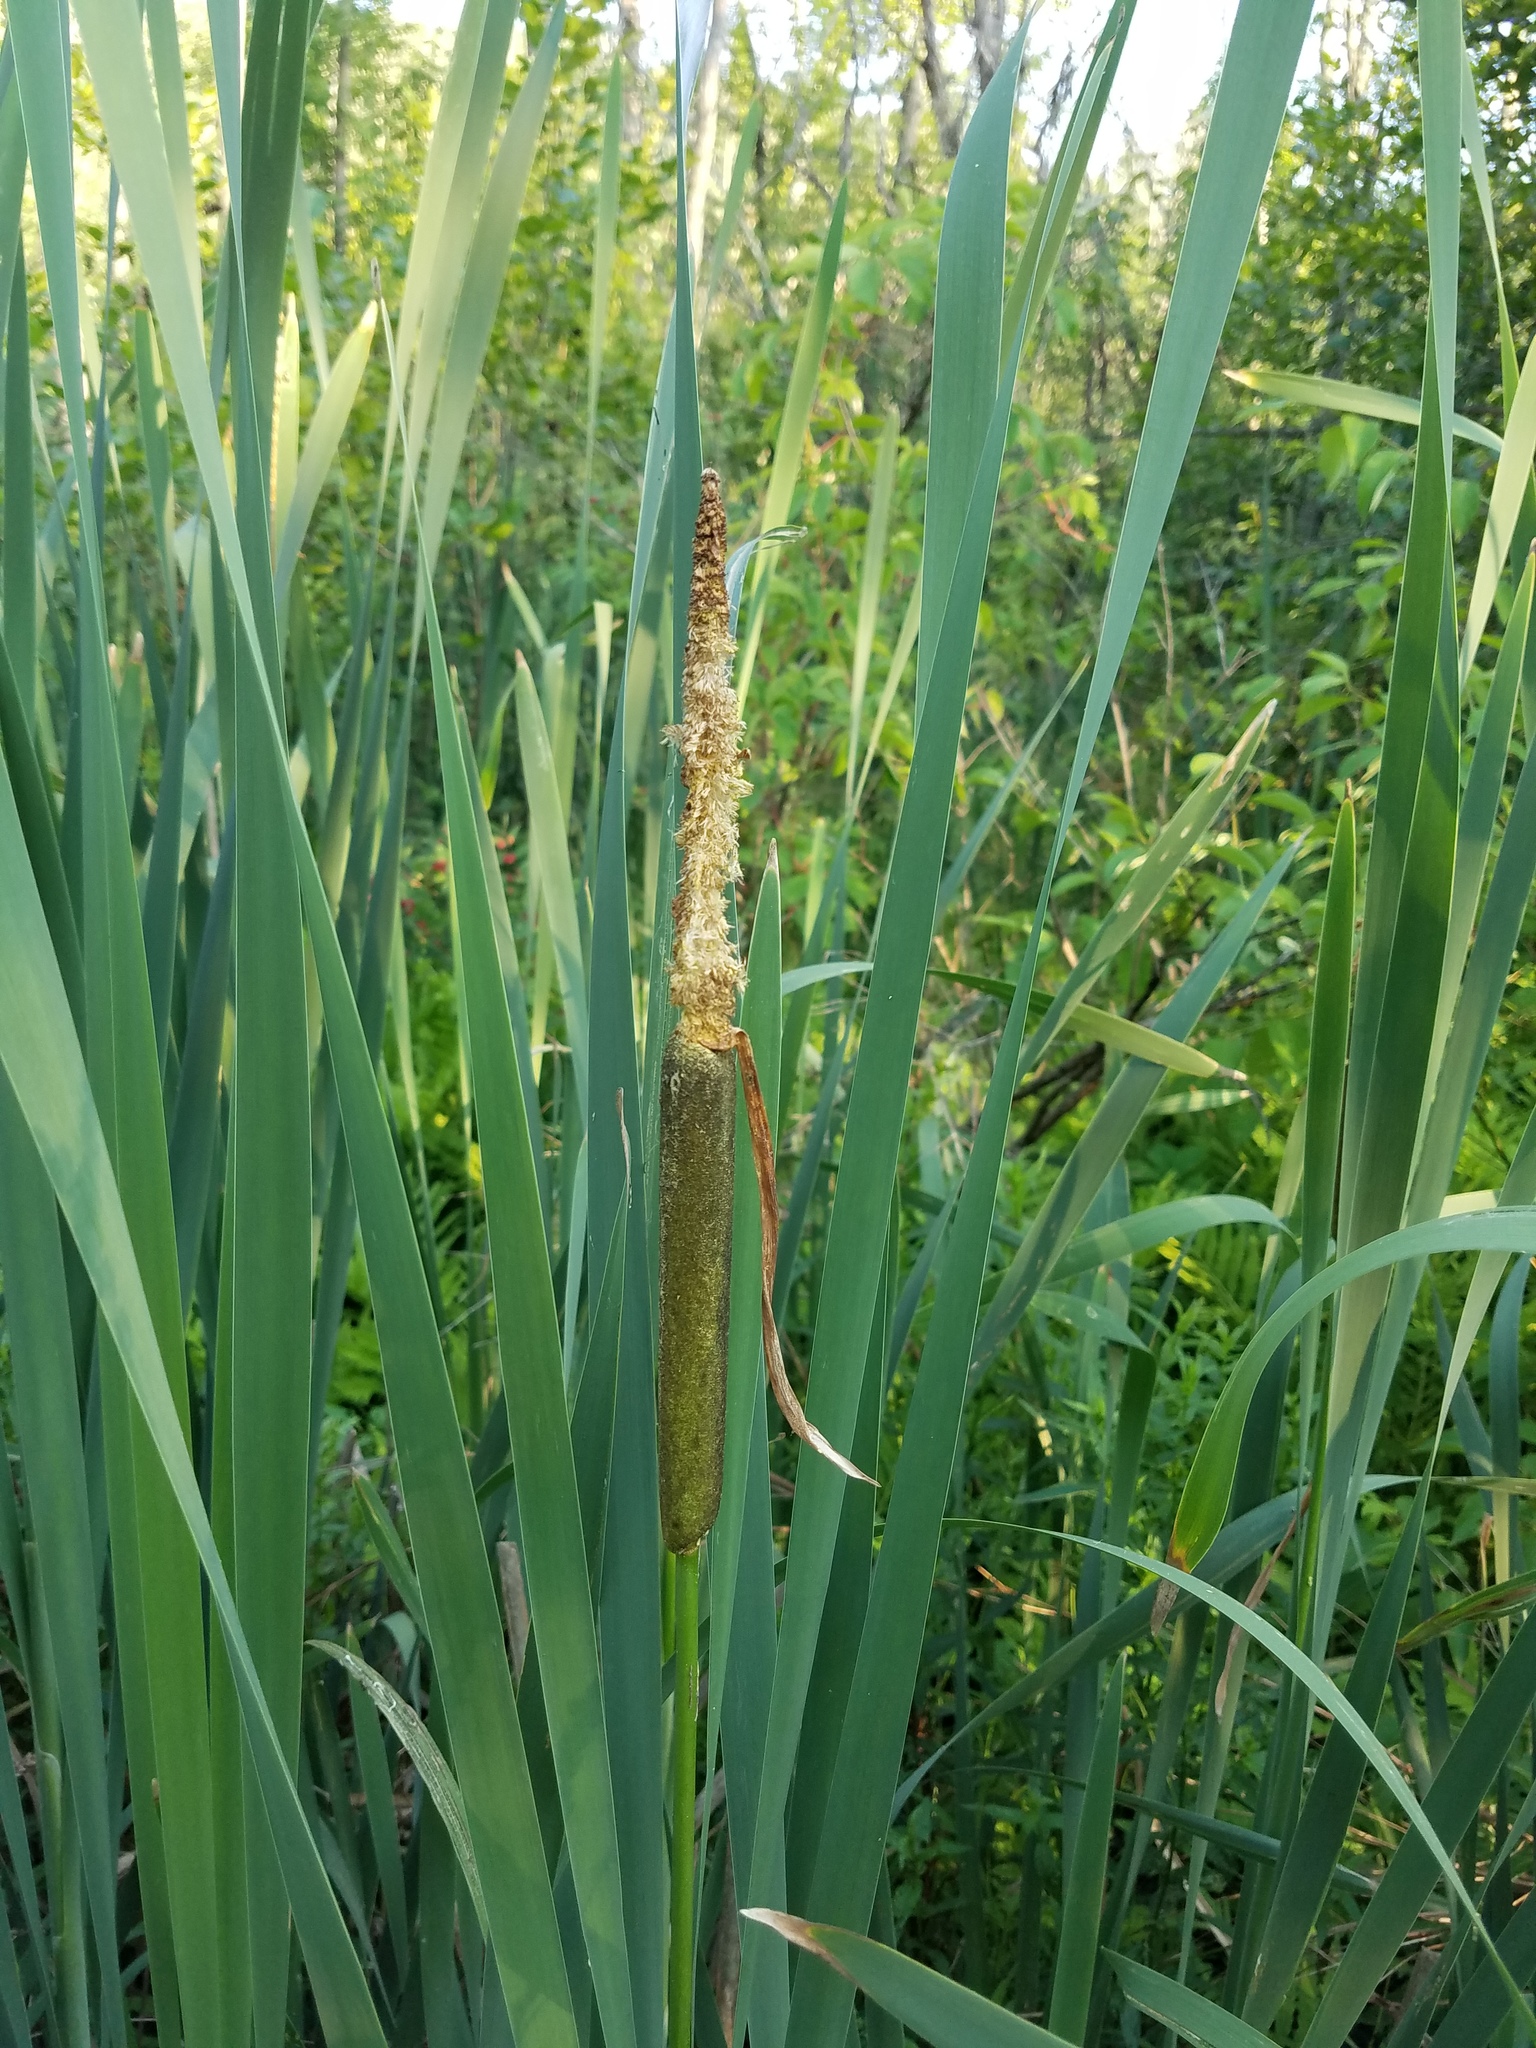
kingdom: Plantae
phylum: Tracheophyta
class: Liliopsida
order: Poales
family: Typhaceae
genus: Typha
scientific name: Typha latifolia
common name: Broadleaf cattail
